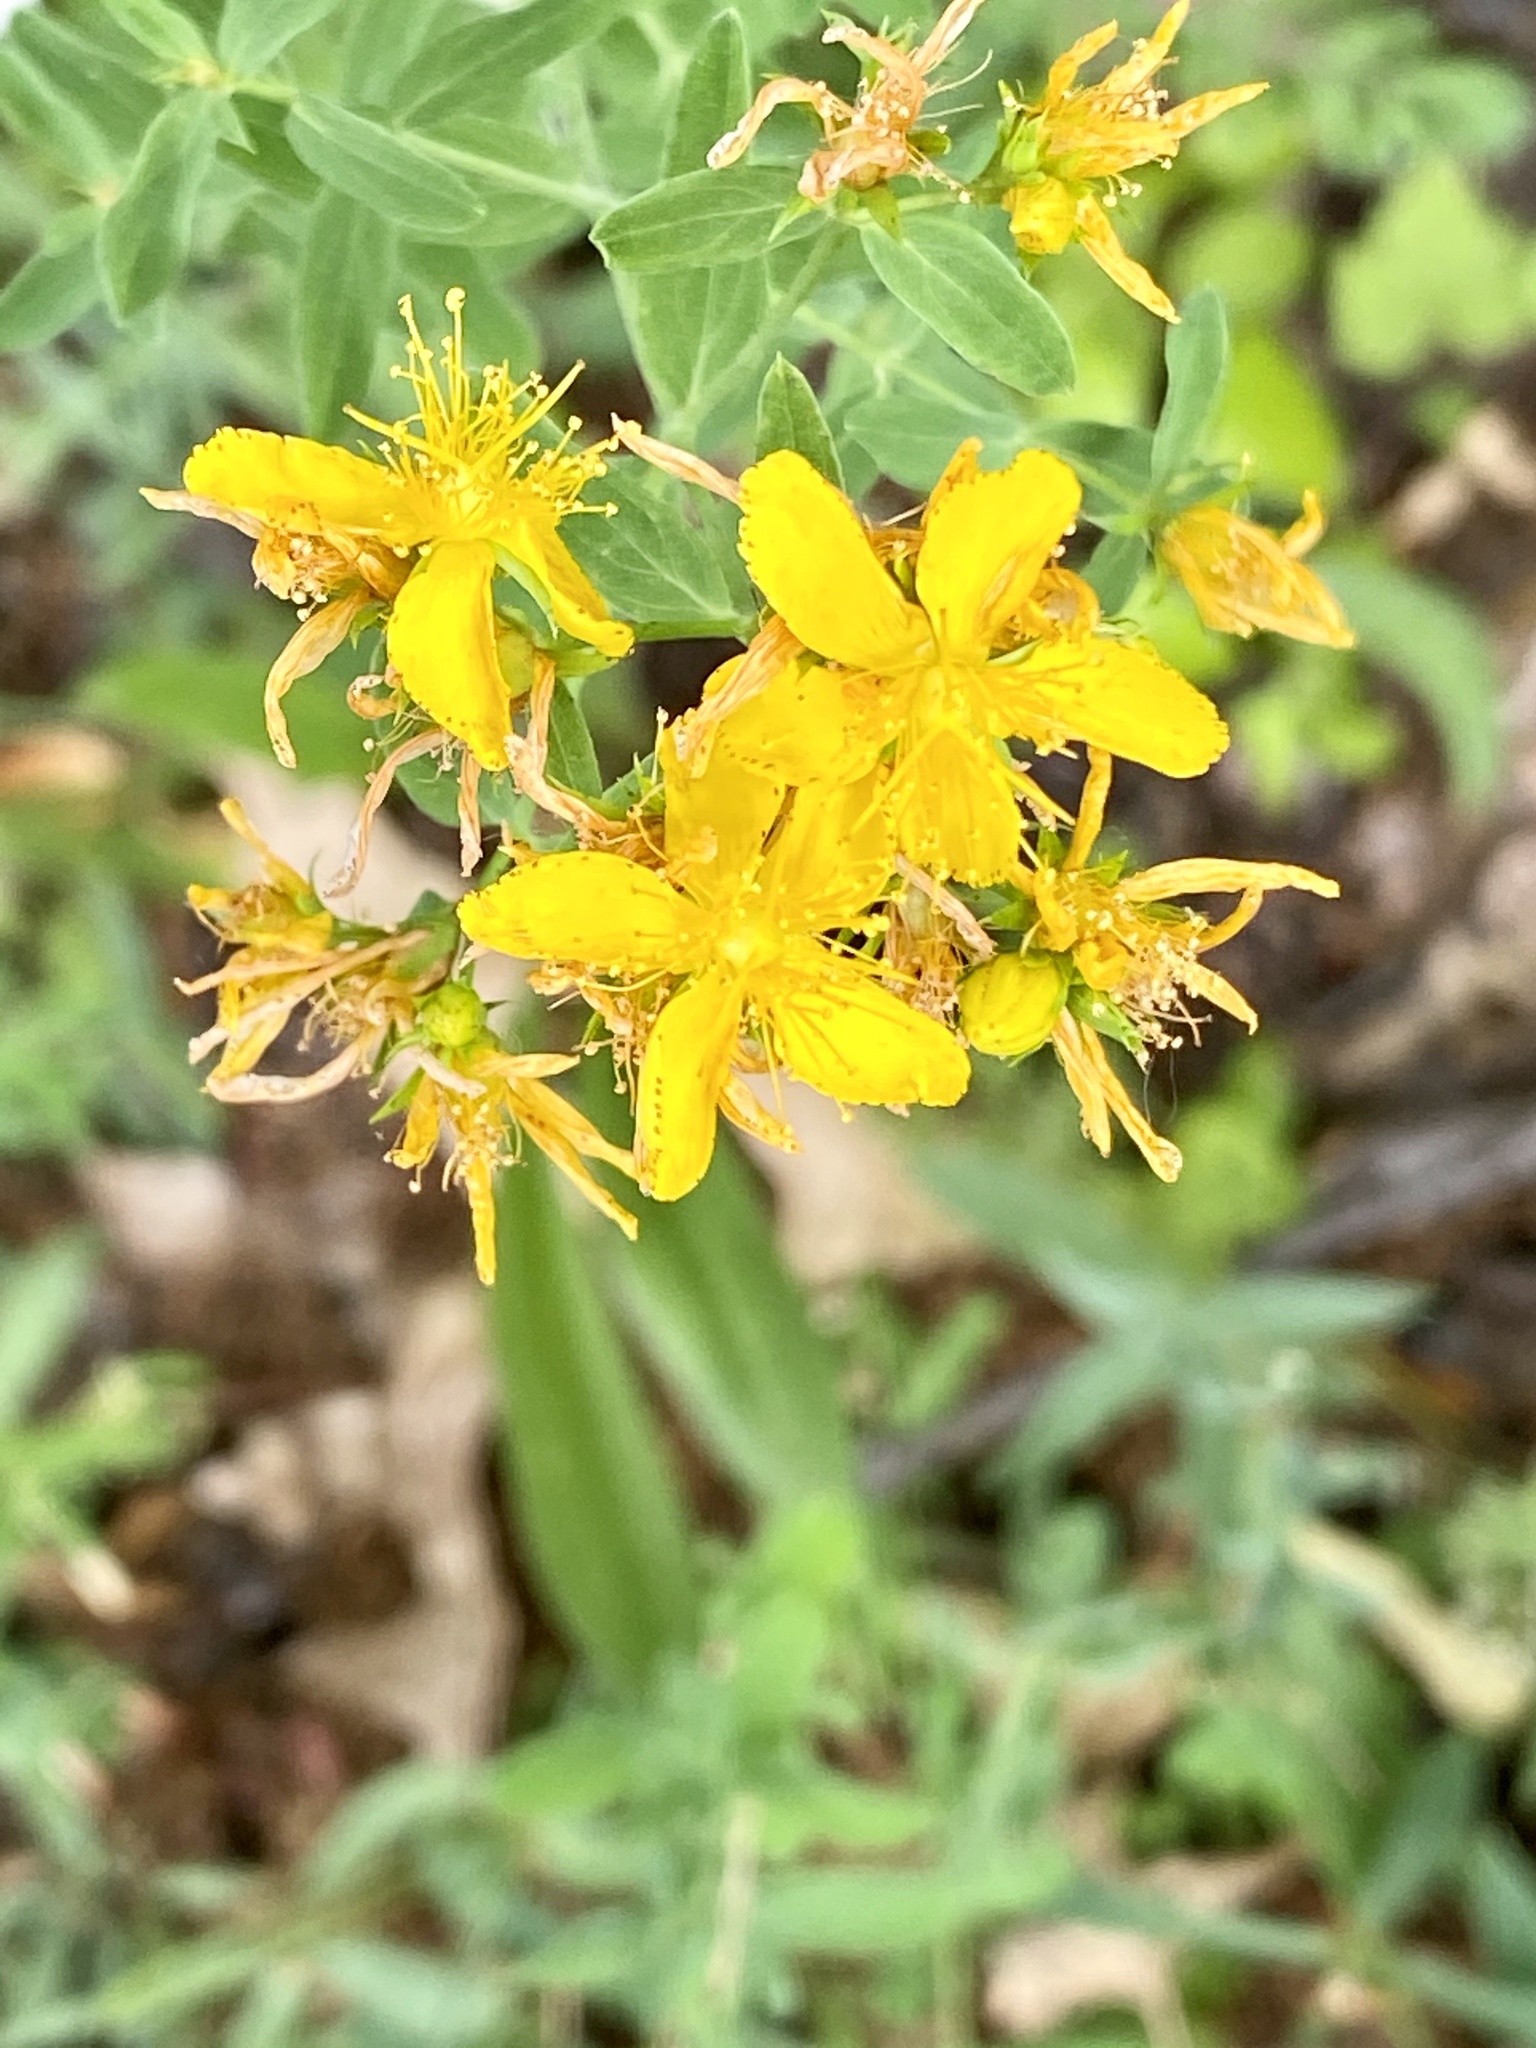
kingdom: Plantae
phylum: Tracheophyta
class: Magnoliopsida
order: Malpighiales
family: Hypericaceae
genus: Hypericum
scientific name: Hypericum perforatum
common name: Common st. johnswort
